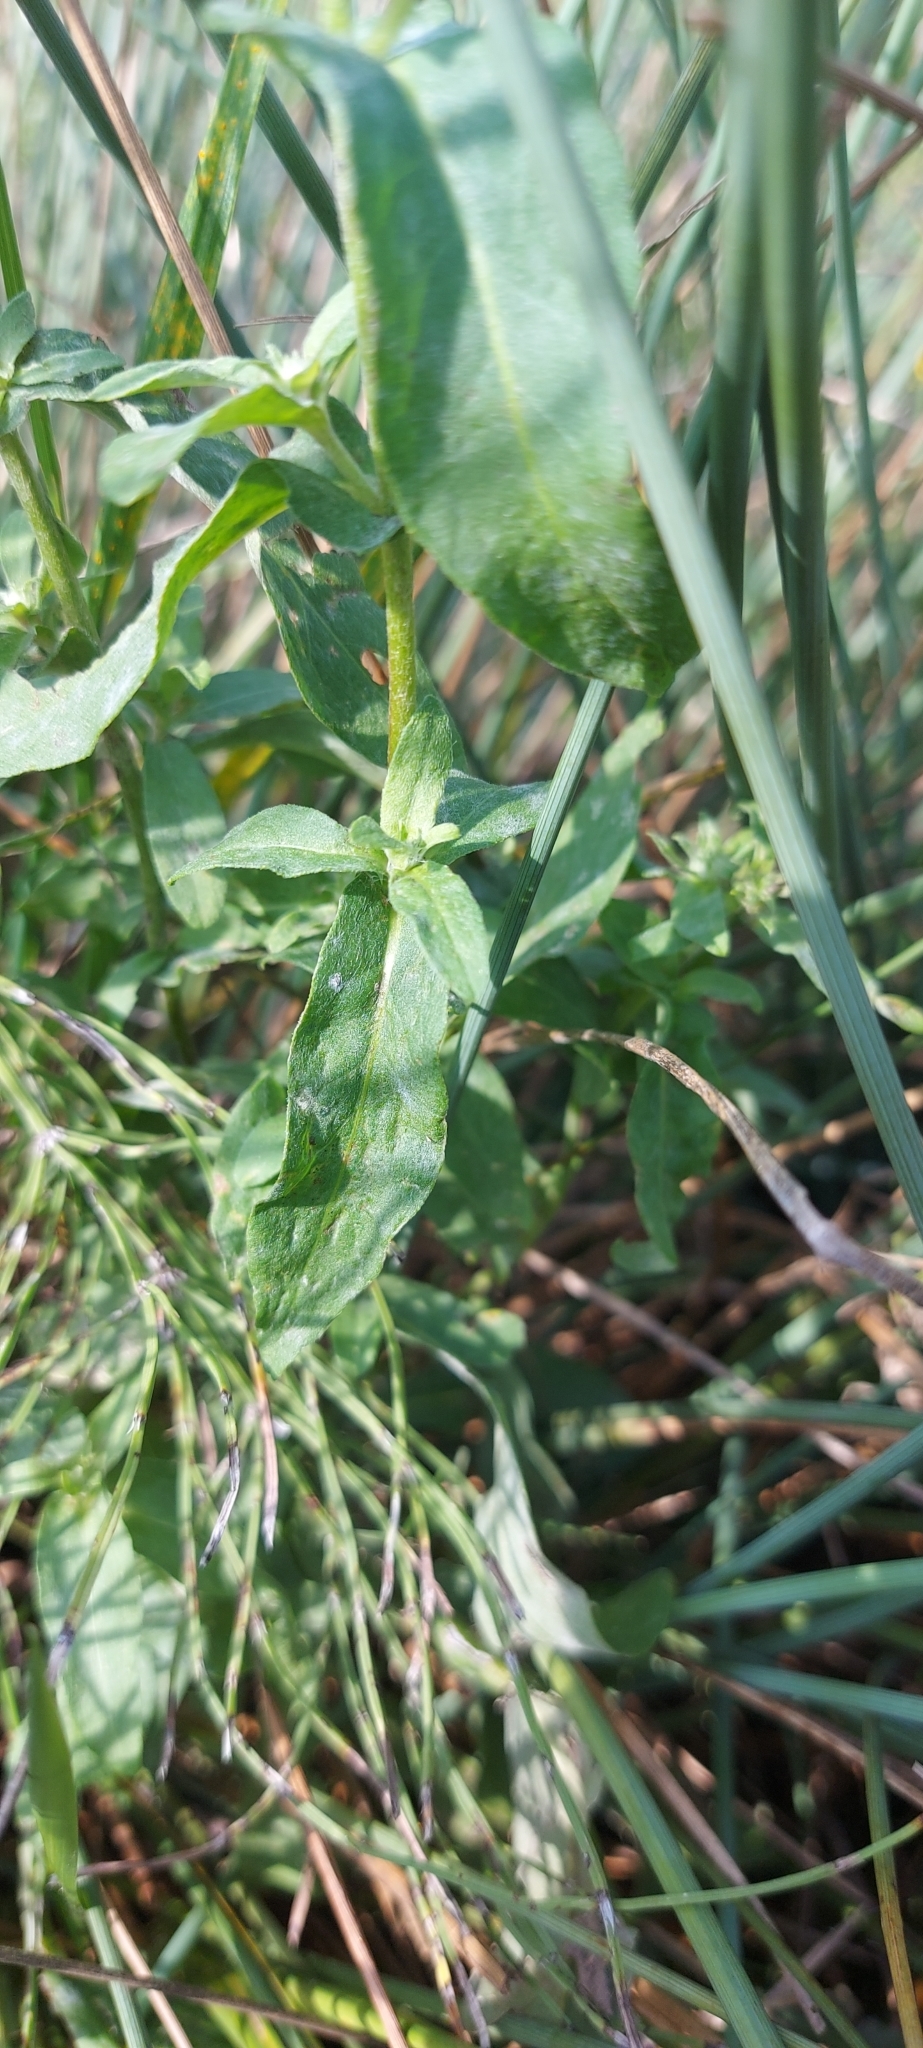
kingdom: Plantae
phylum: Tracheophyta
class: Magnoliopsida
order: Asterales
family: Asteraceae
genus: Pentanema
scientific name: Pentanema britannicum
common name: British elecampane
